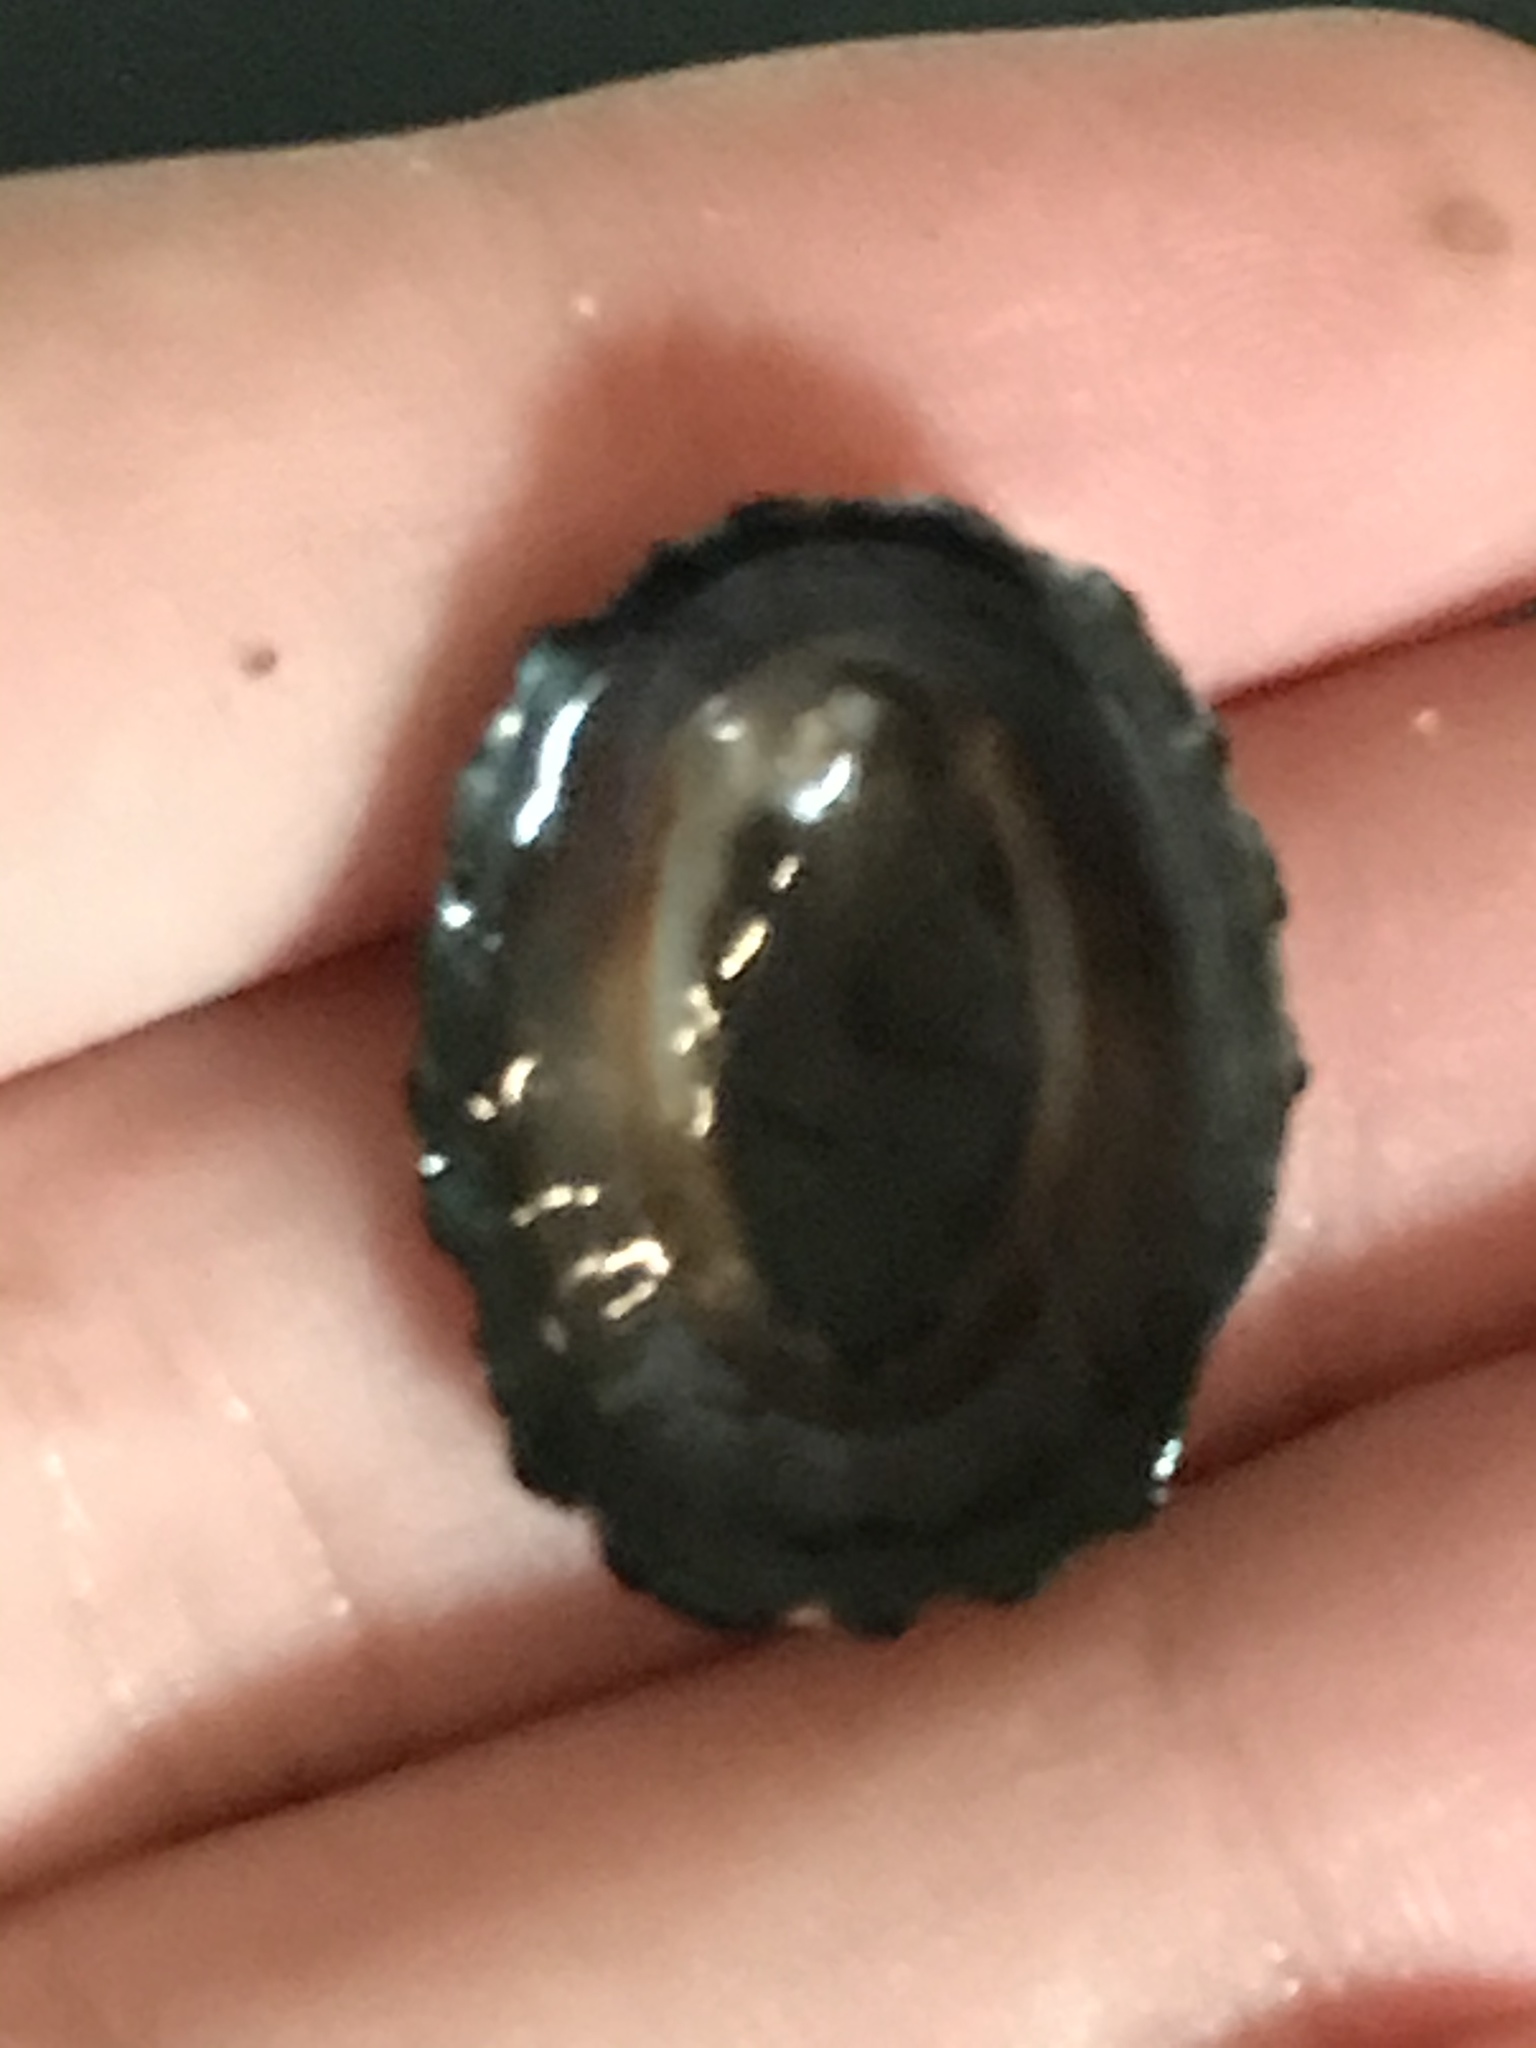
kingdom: Animalia
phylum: Mollusca
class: Gastropoda
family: Lottiidae
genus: Lottia
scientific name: Lottia gigantea
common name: Owl limpet
